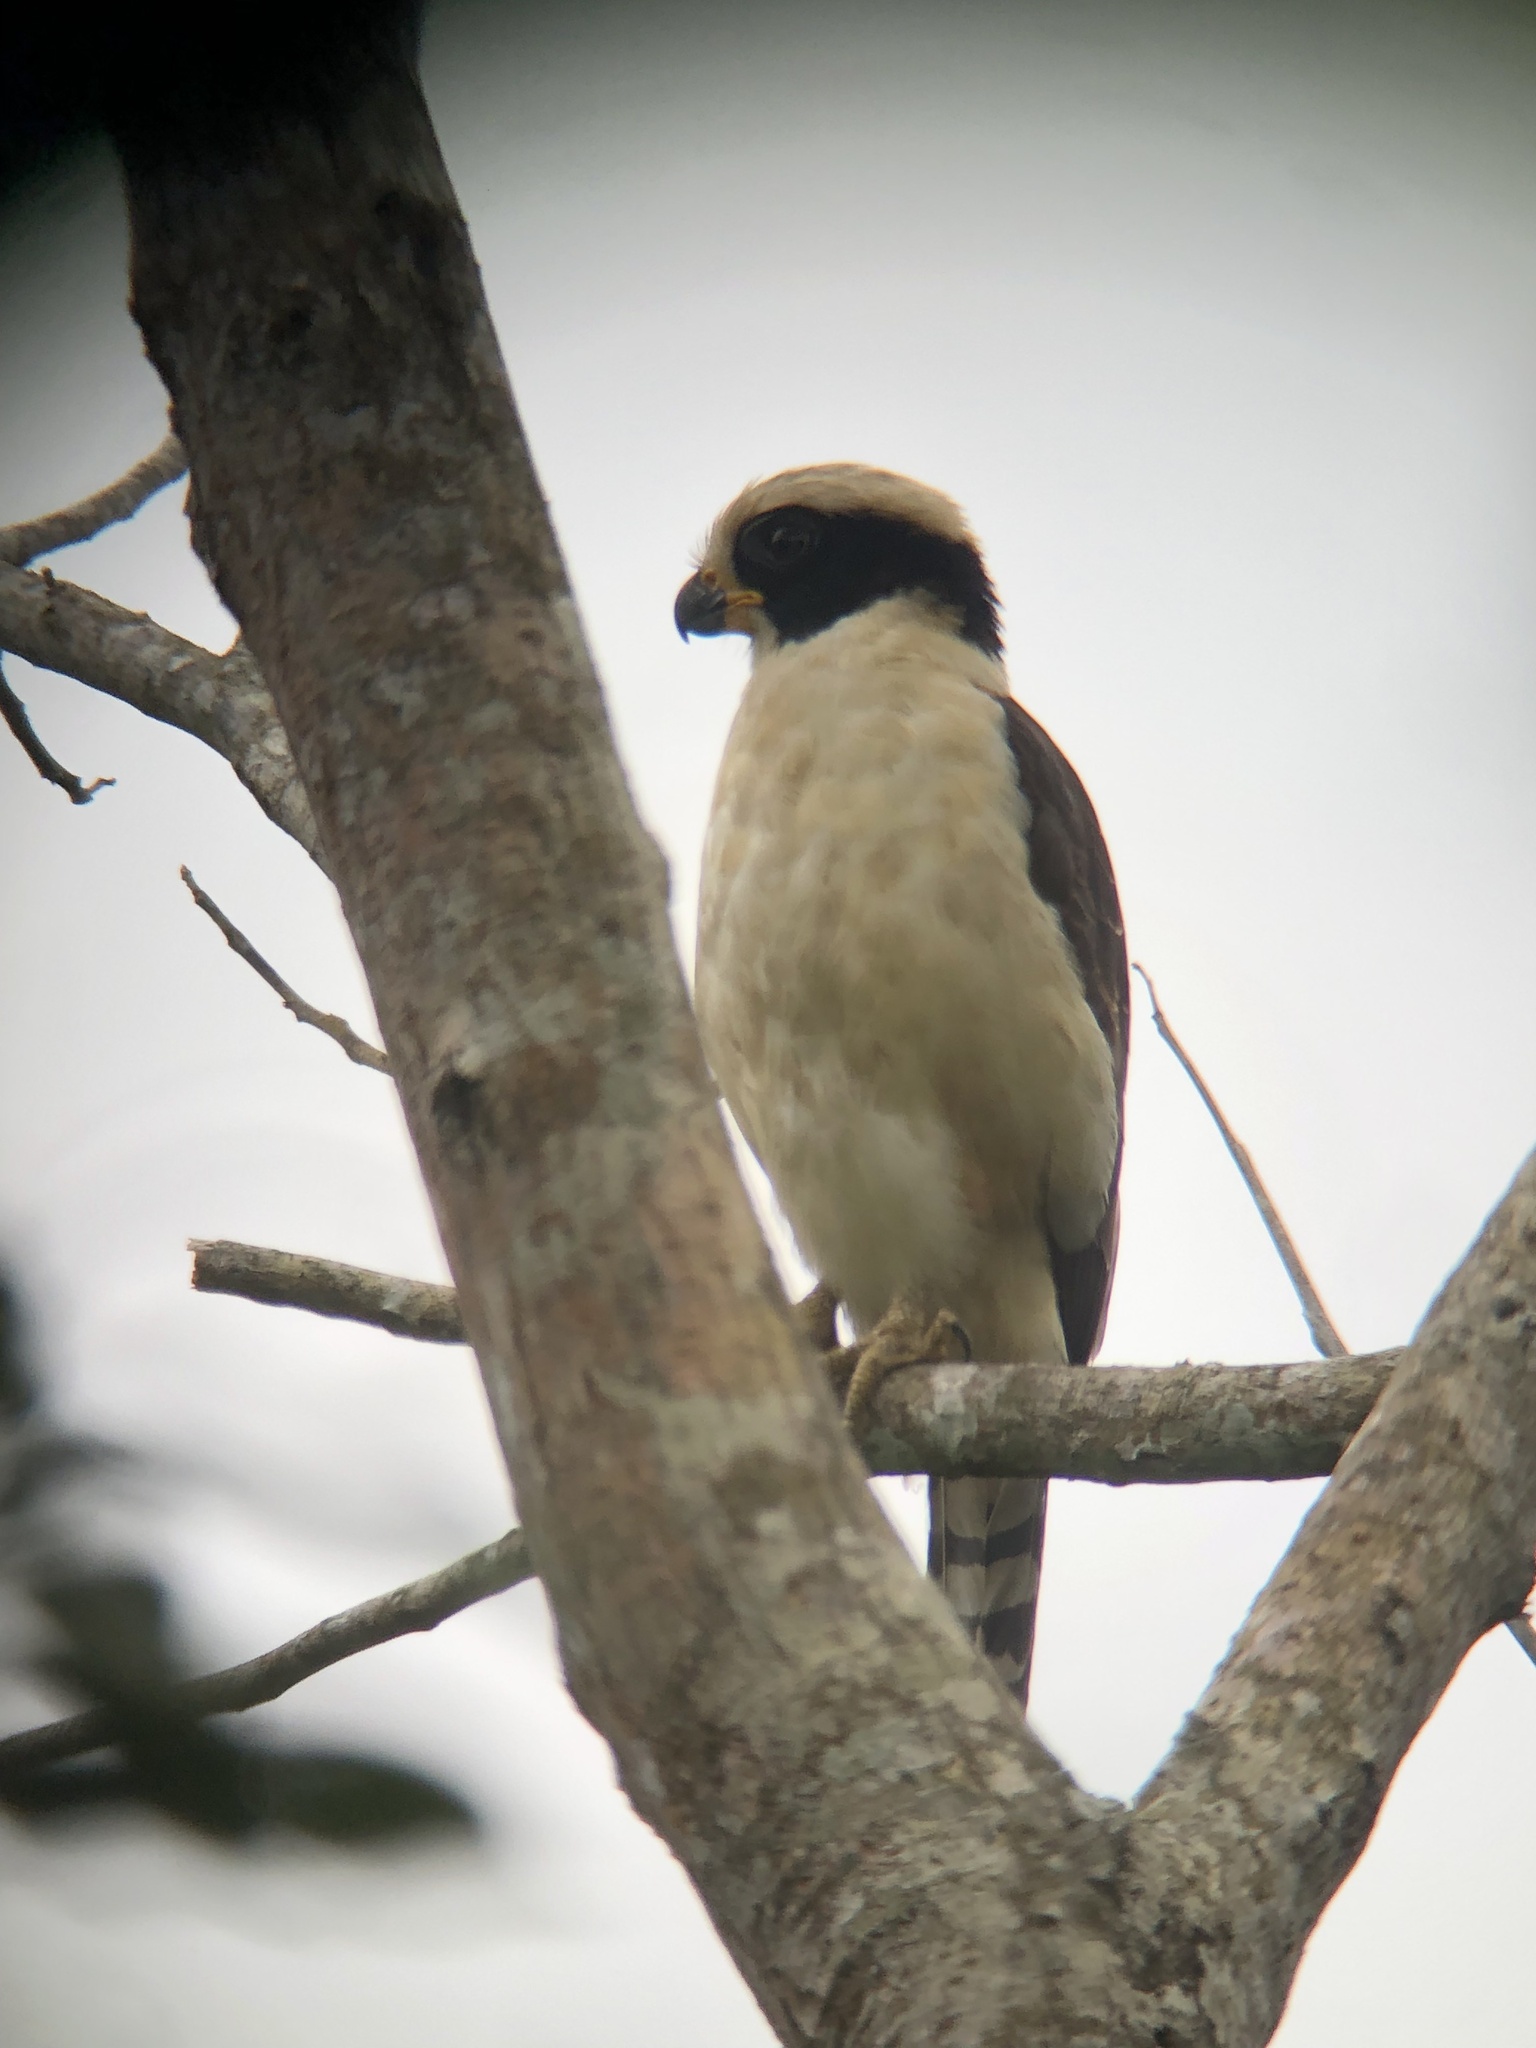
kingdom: Animalia
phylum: Chordata
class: Aves
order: Falconiformes
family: Falconidae
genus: Herpetotheres
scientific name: Herpetotheres cachinnans
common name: Laughing falcon
